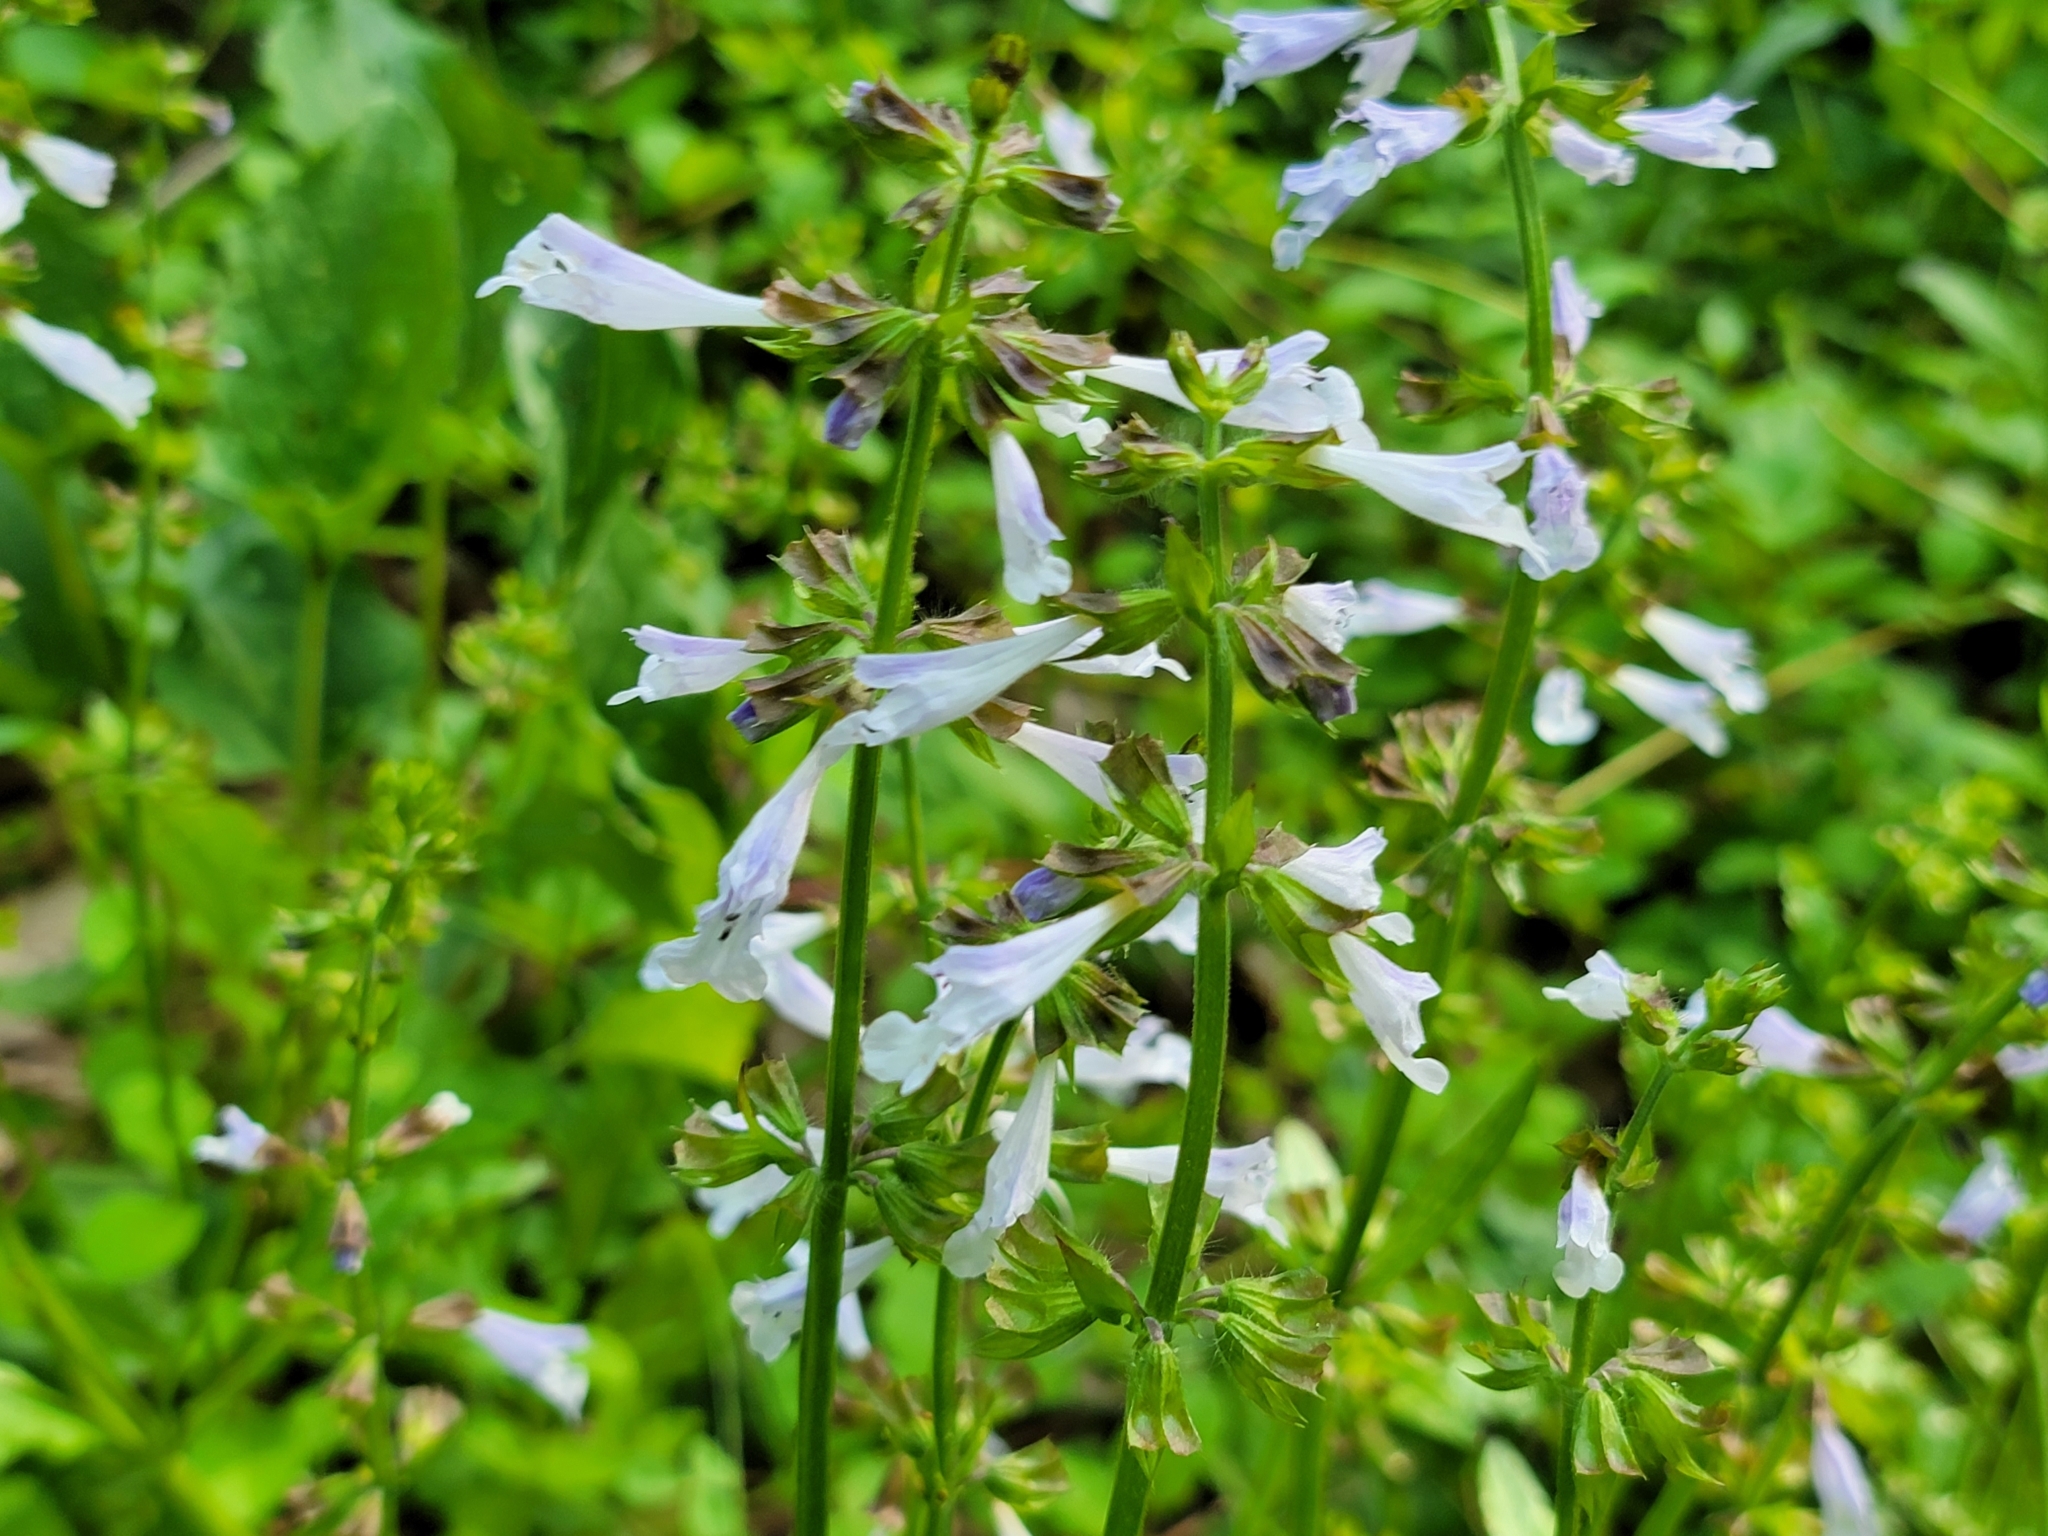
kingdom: Plantae
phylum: Tracheophyta
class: Magnoliopsida
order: Lamiales
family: Lamiaceae
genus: Salvia
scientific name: Salvia lyrata
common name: Cancerweed
